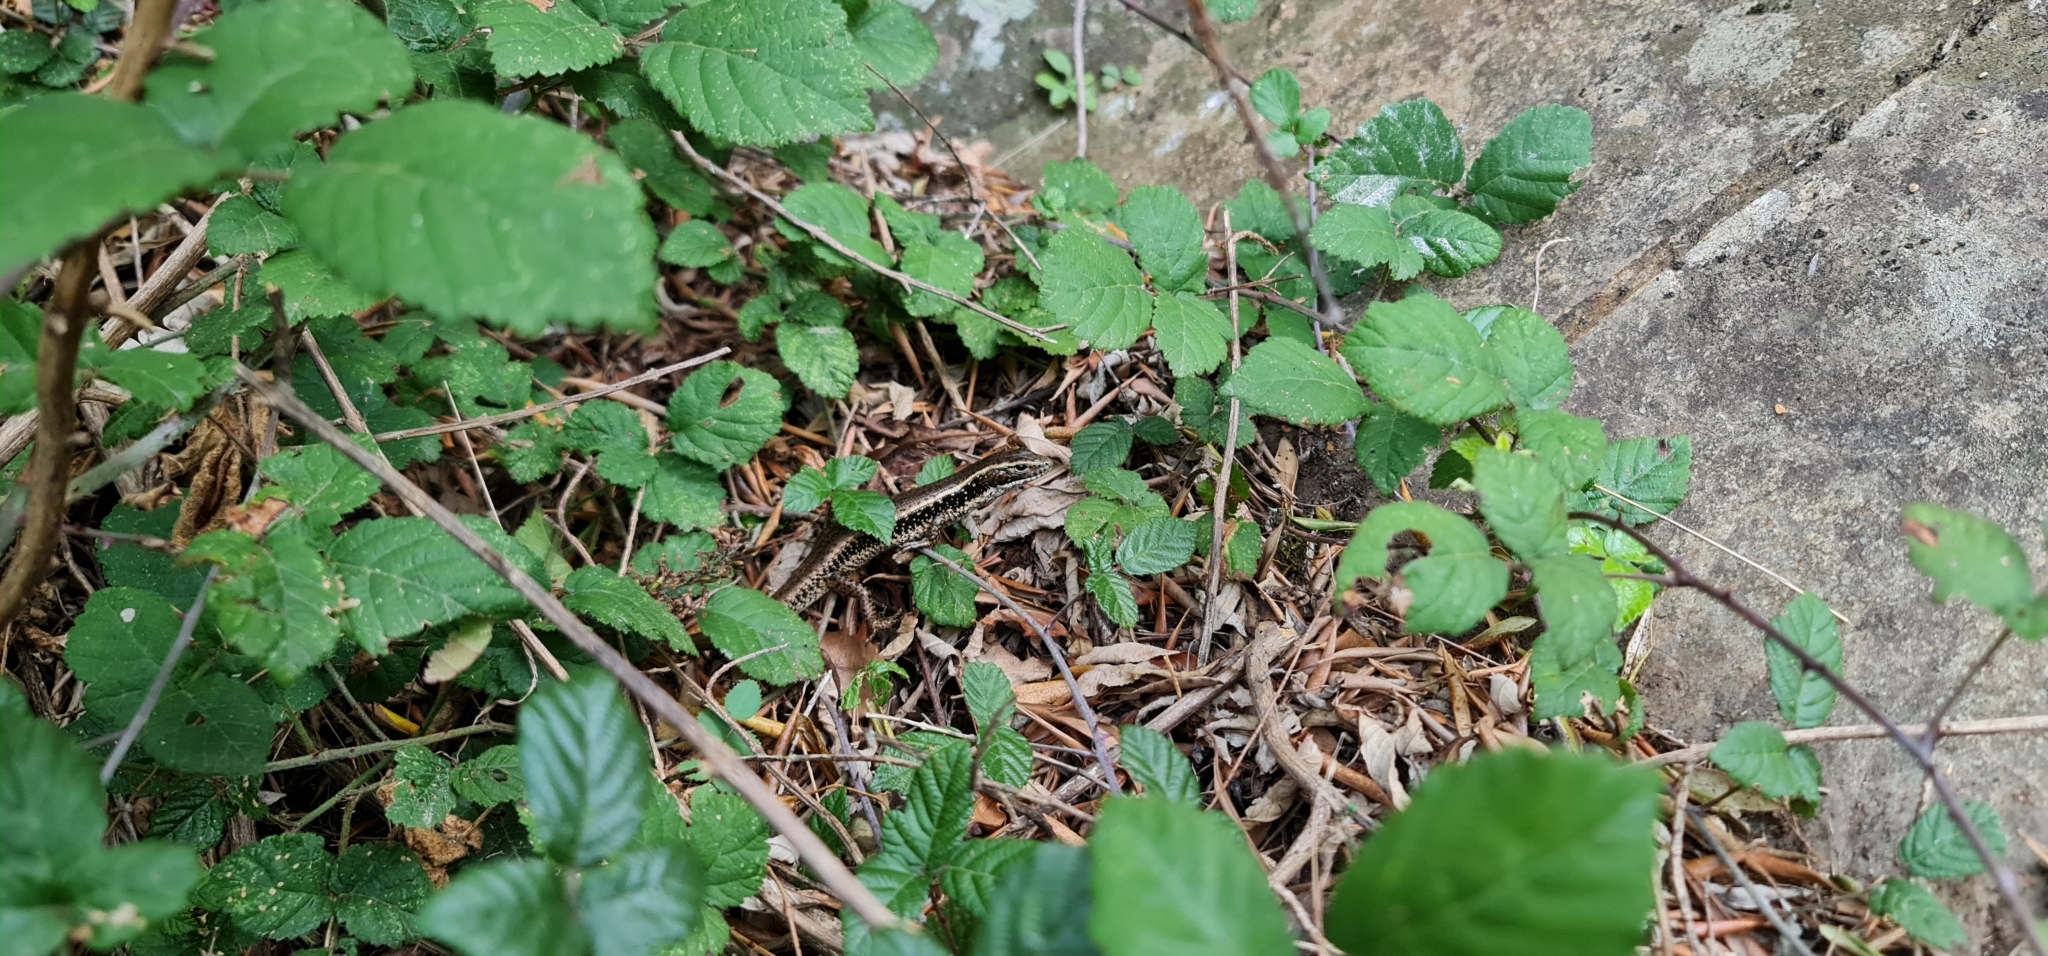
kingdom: Animalia
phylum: Chordata
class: Squamata
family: Scincidae
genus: Eulamprus
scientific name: Eulamprus quoyii
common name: Eastern water skink
